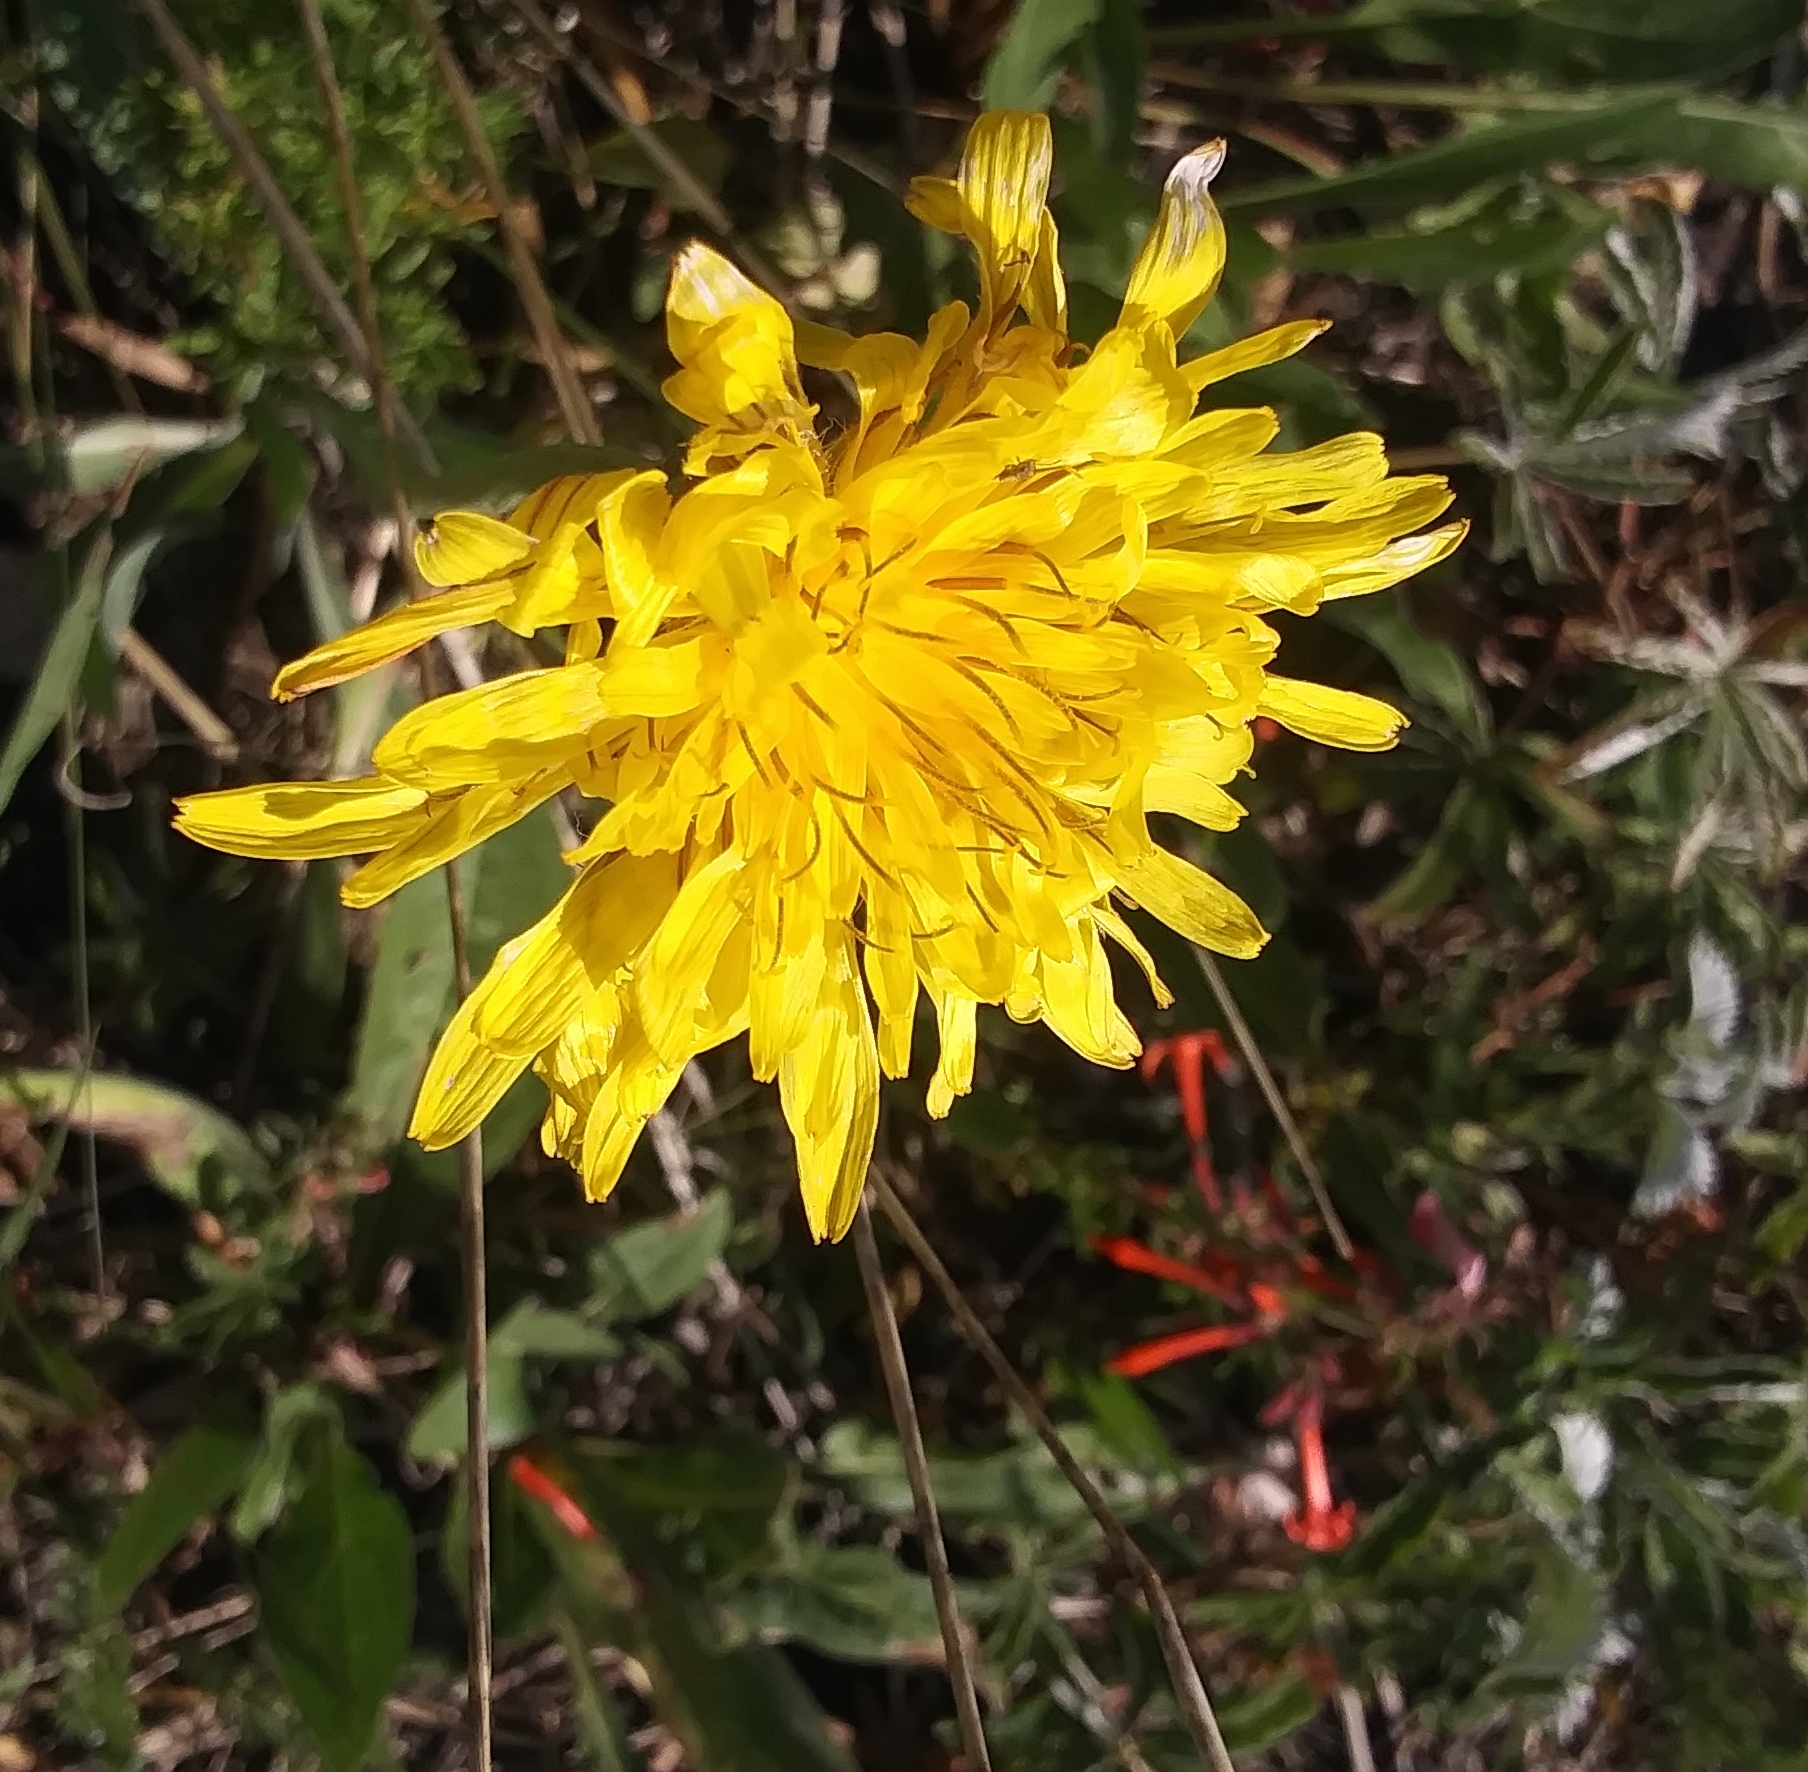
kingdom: Plantae
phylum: Tracheophyta
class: Magnoliopsida
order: Asterales
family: Asteraceae
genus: Agoseris
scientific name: Agoseris glauca
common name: Prairie agoseris
